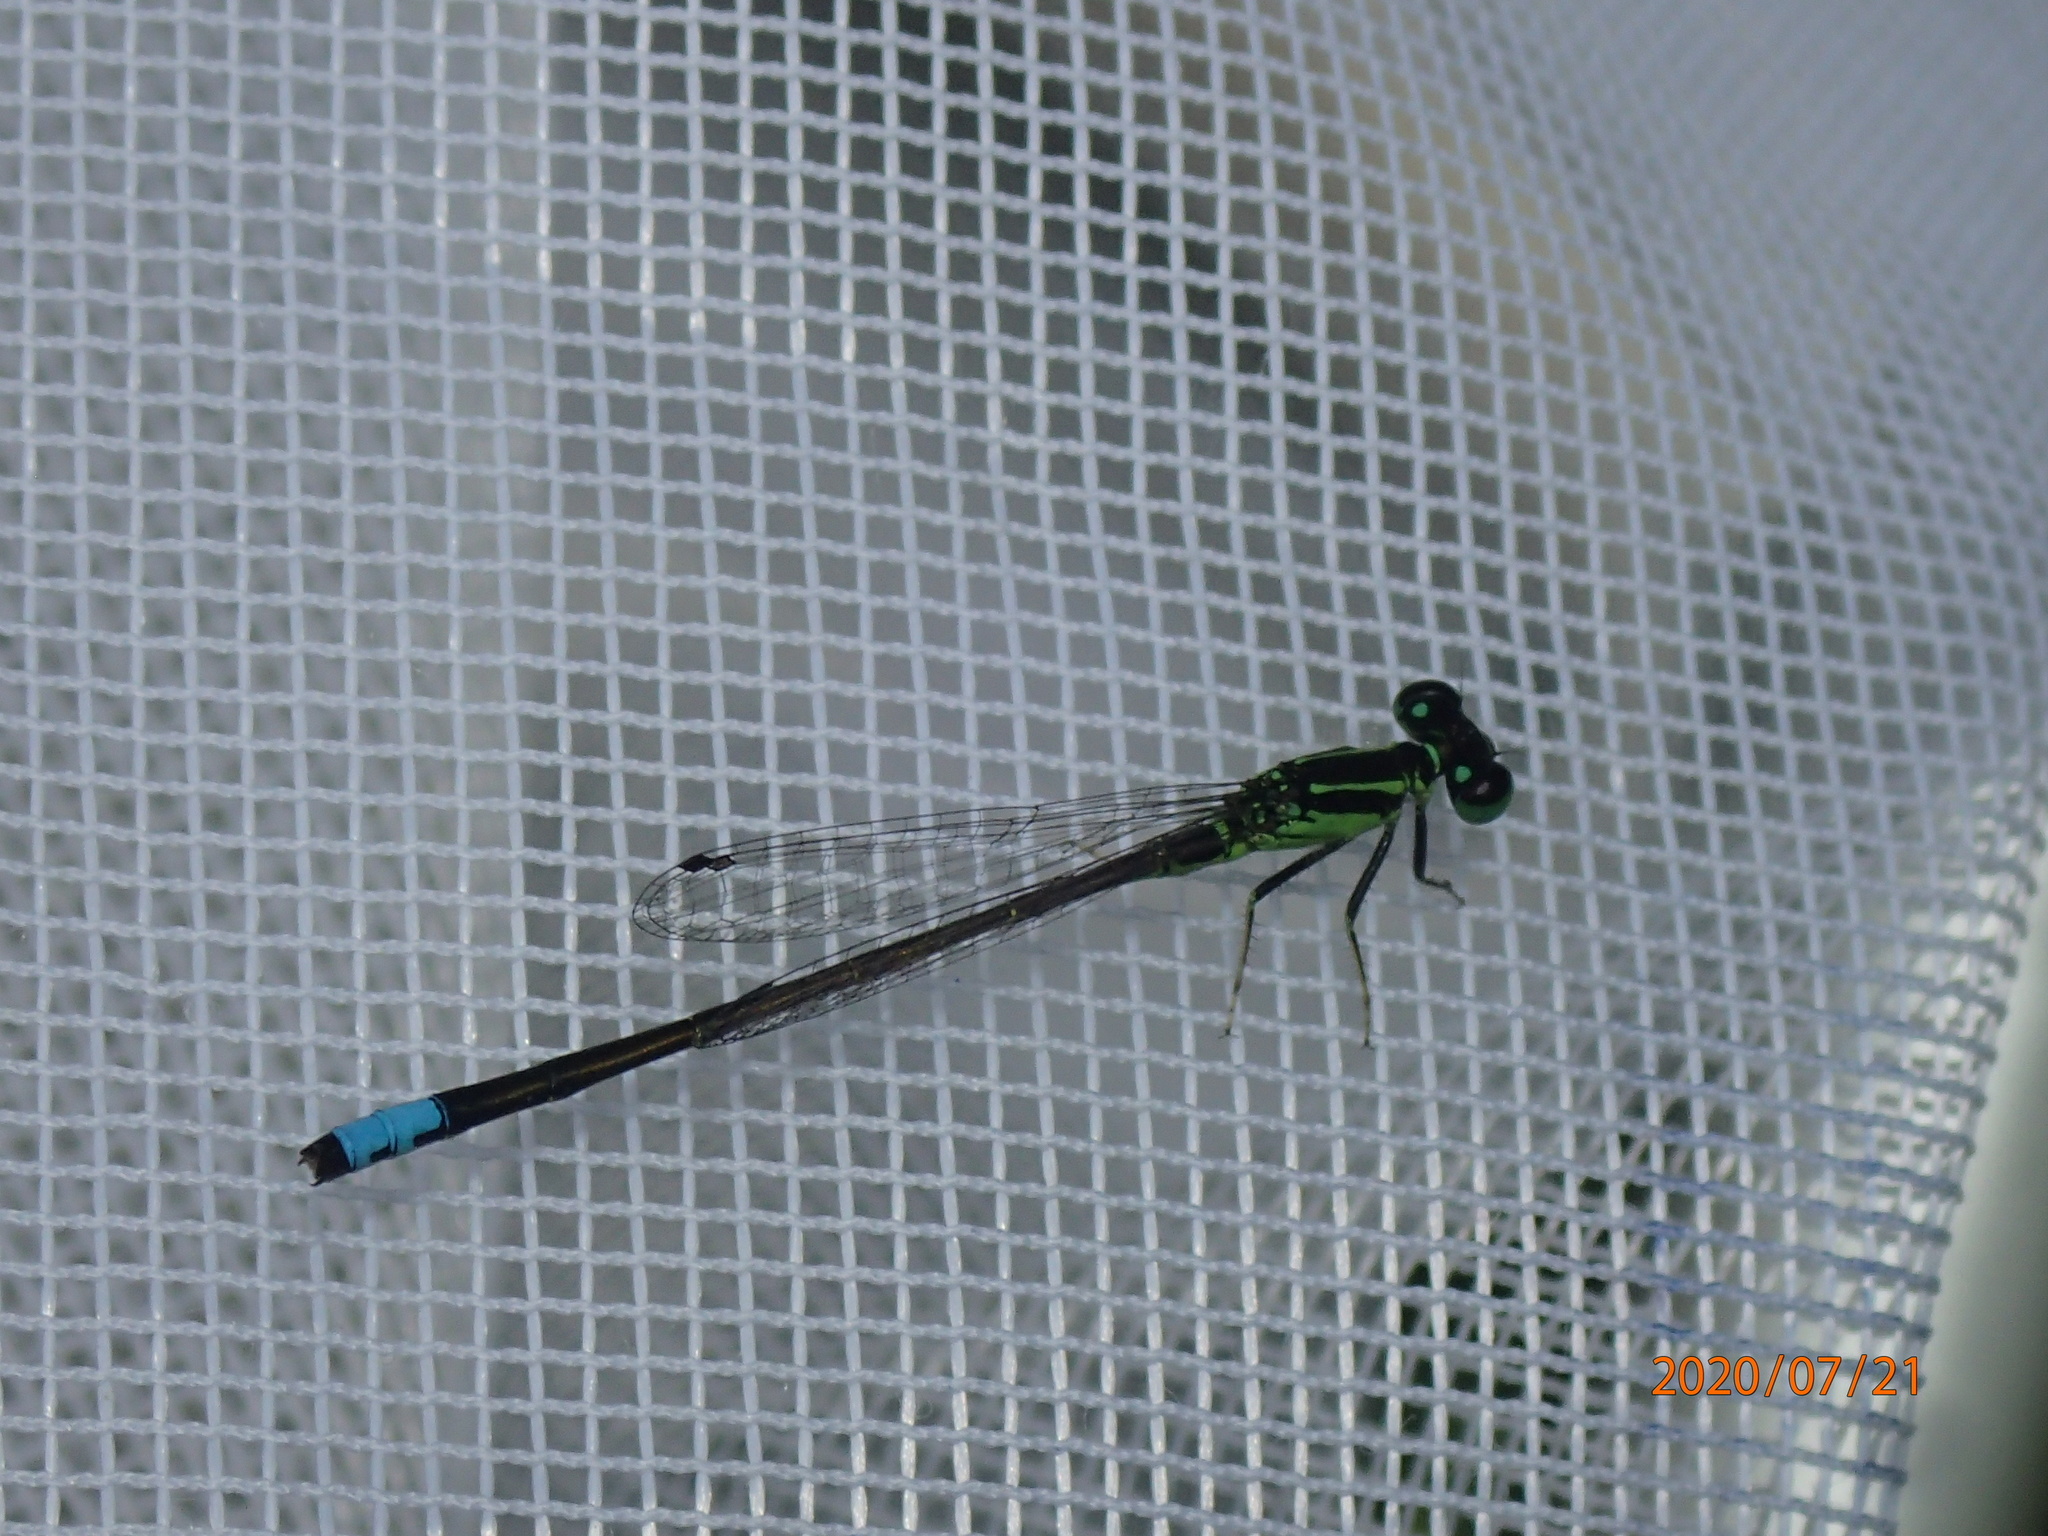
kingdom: Animalia
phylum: Arthropoda
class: Insecta
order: Odonata
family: Coenagrionidae
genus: Ischnura
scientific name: Ischnura verticalis
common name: Eastern forktail
